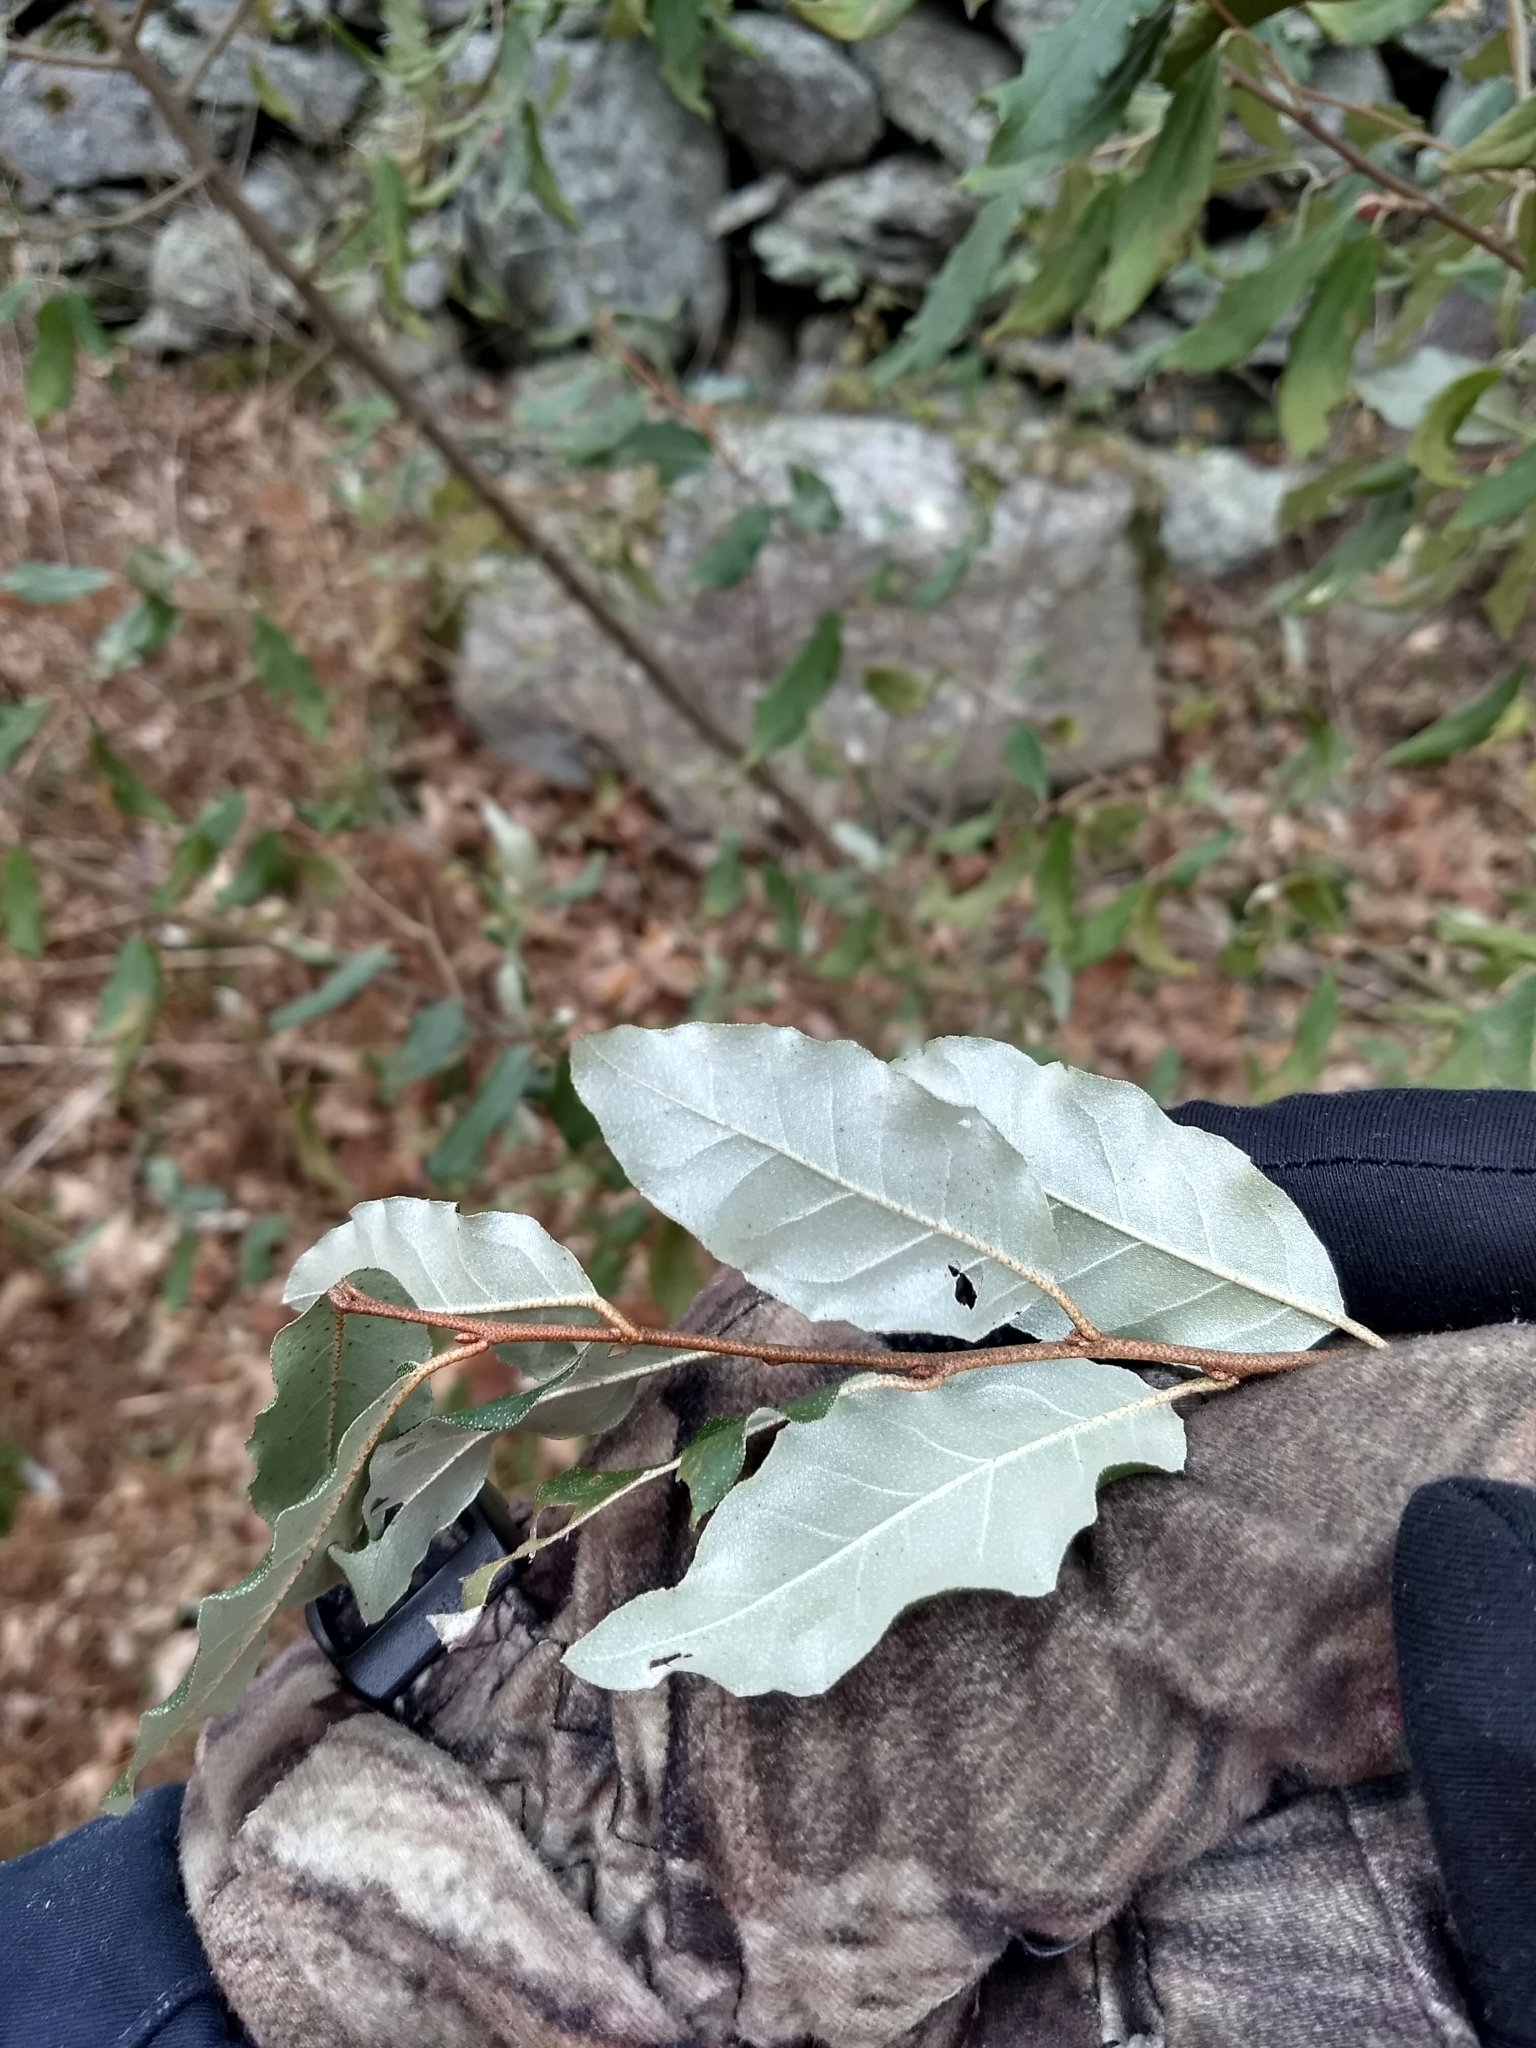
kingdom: Plantae
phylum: Tracheophyta
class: Magnoliopsida
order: Rosales
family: Elaeagnaceae
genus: Elaeagnus
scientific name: Elaeagnus umbellata
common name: Autumn olive
